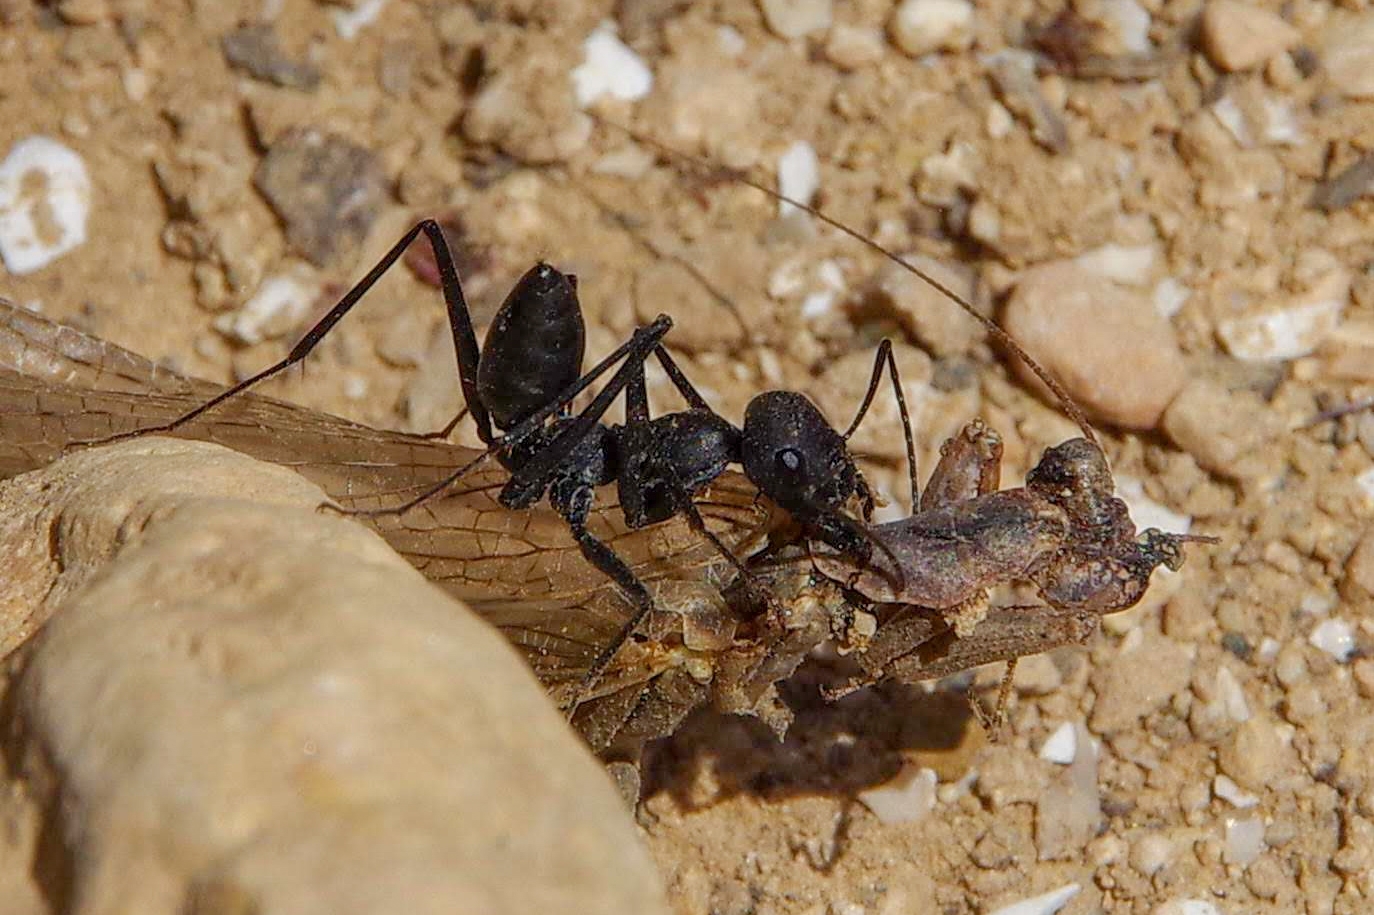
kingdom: Animalia
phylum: Arthropoda
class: Insecta
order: Hymenoptera
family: Formicidae
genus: Messor
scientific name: Messor capitatus
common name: European seed harvesting ant
